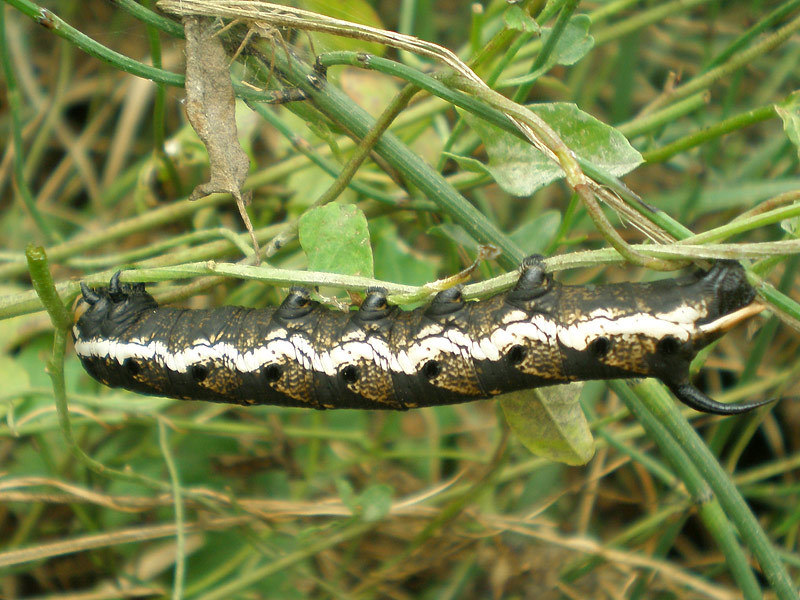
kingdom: Animalia
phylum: Arthropoda
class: Insecta
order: Lepidoptera
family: Sphingidae
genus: Agrius
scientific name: Agrius convolvuli
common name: Convolvulus hawkmoth
